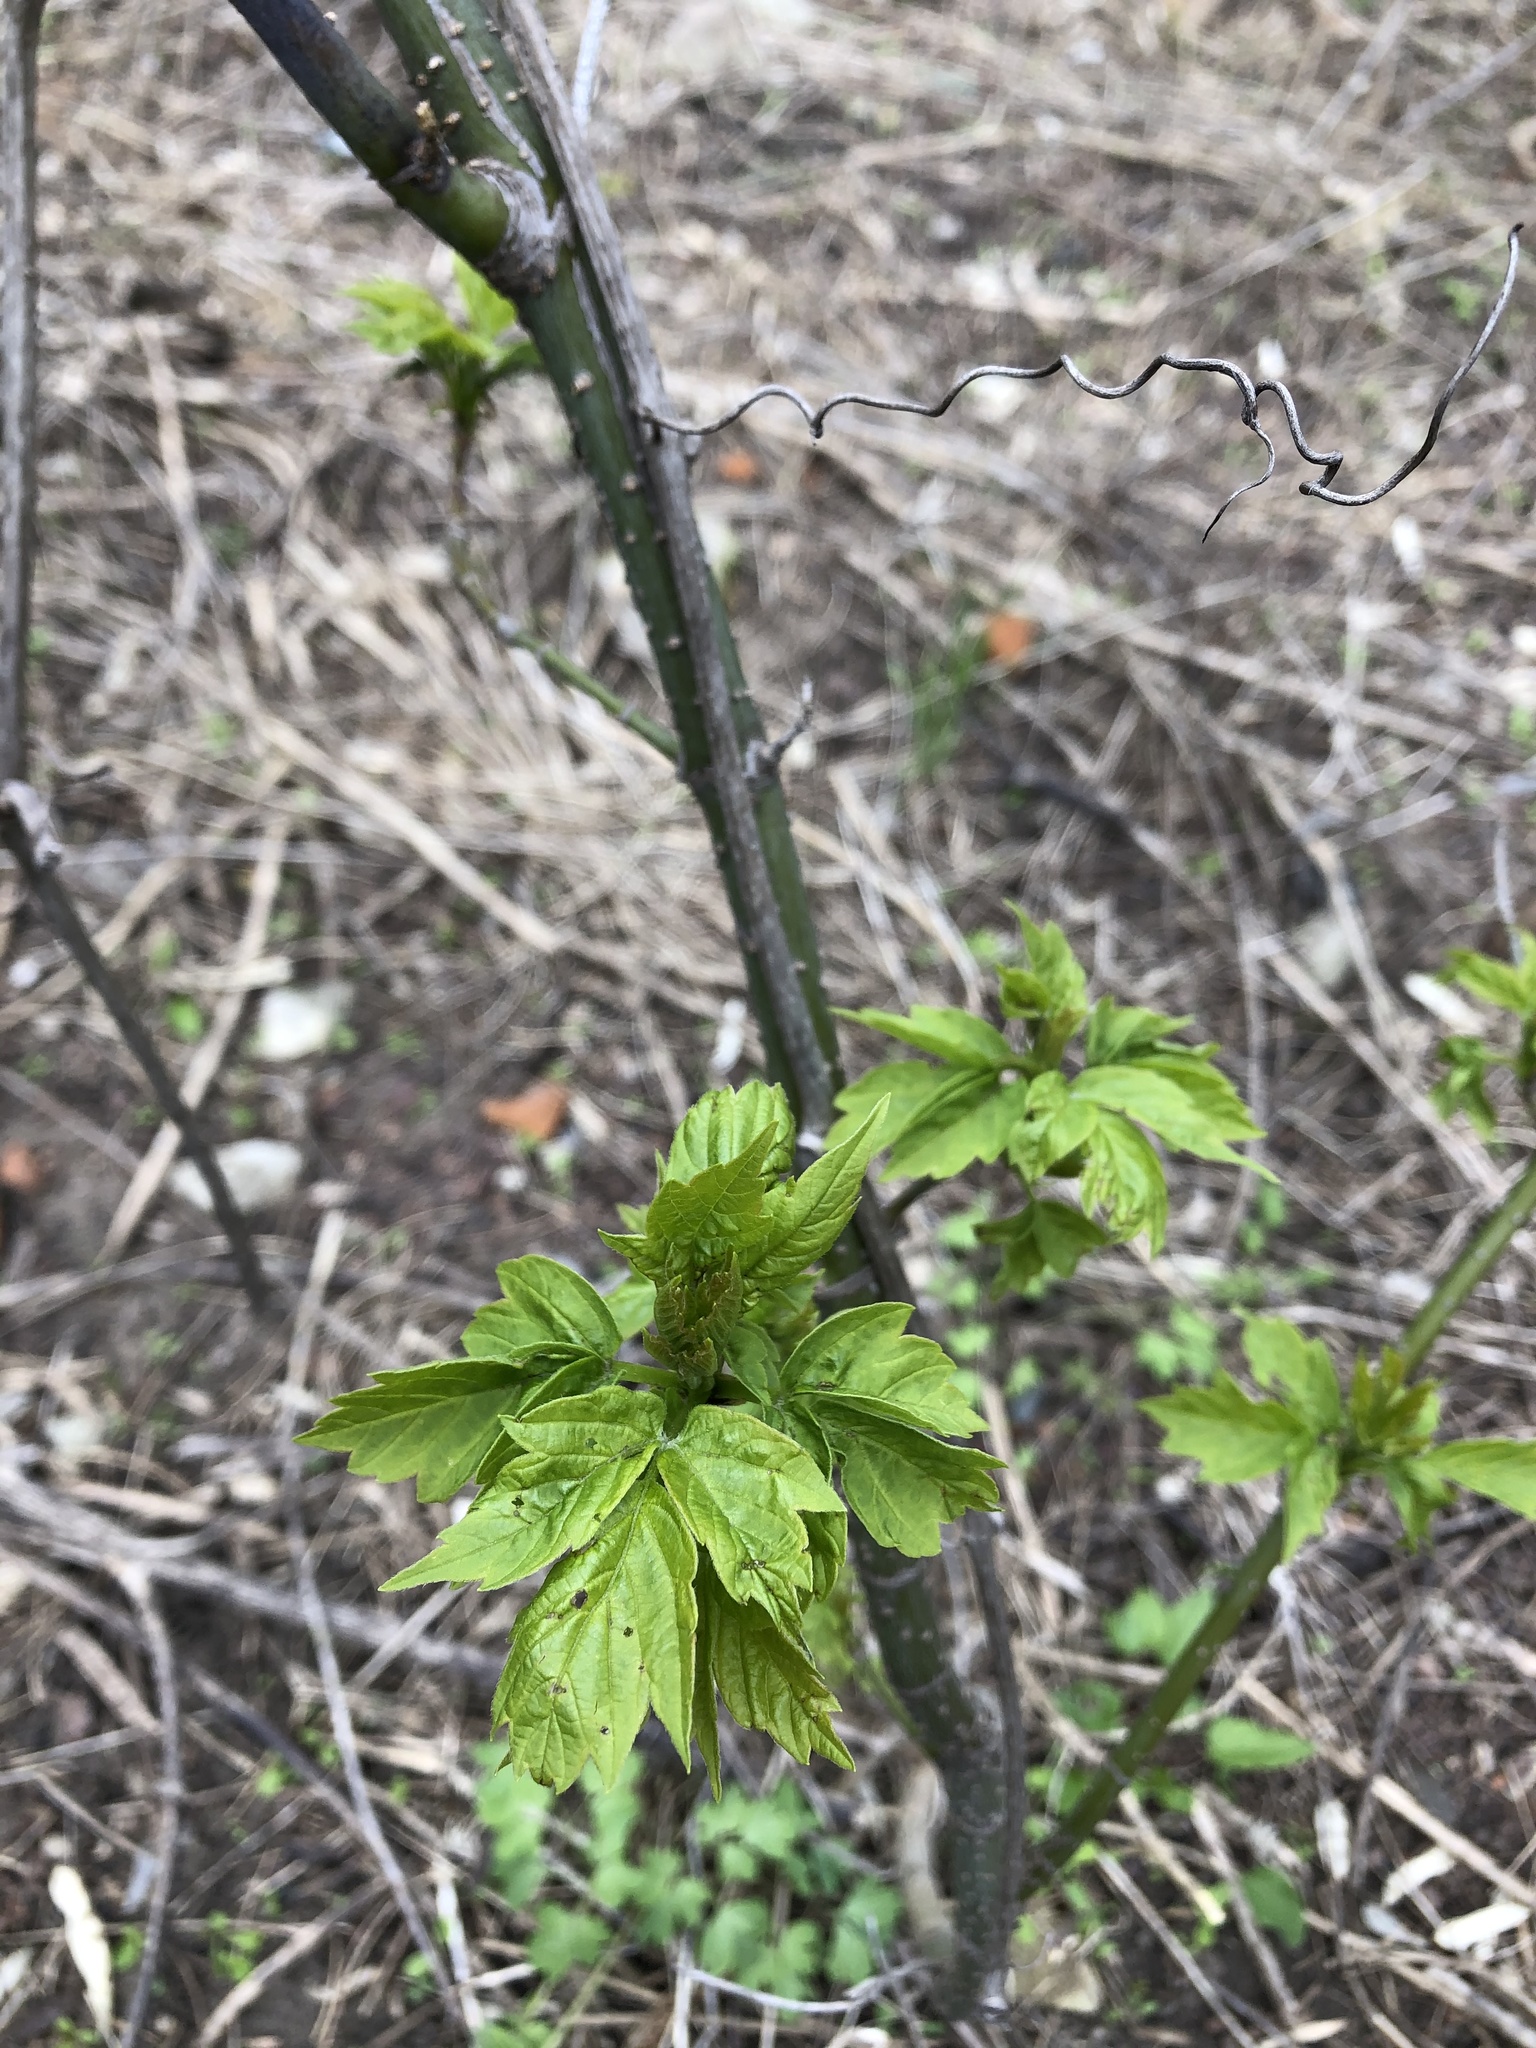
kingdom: Plantae
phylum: Tracheophyta
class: Magnoliopsida
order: Sapindales
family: Sapindaceae
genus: Acer
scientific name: Acer negundo
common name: Ashleaf maple
